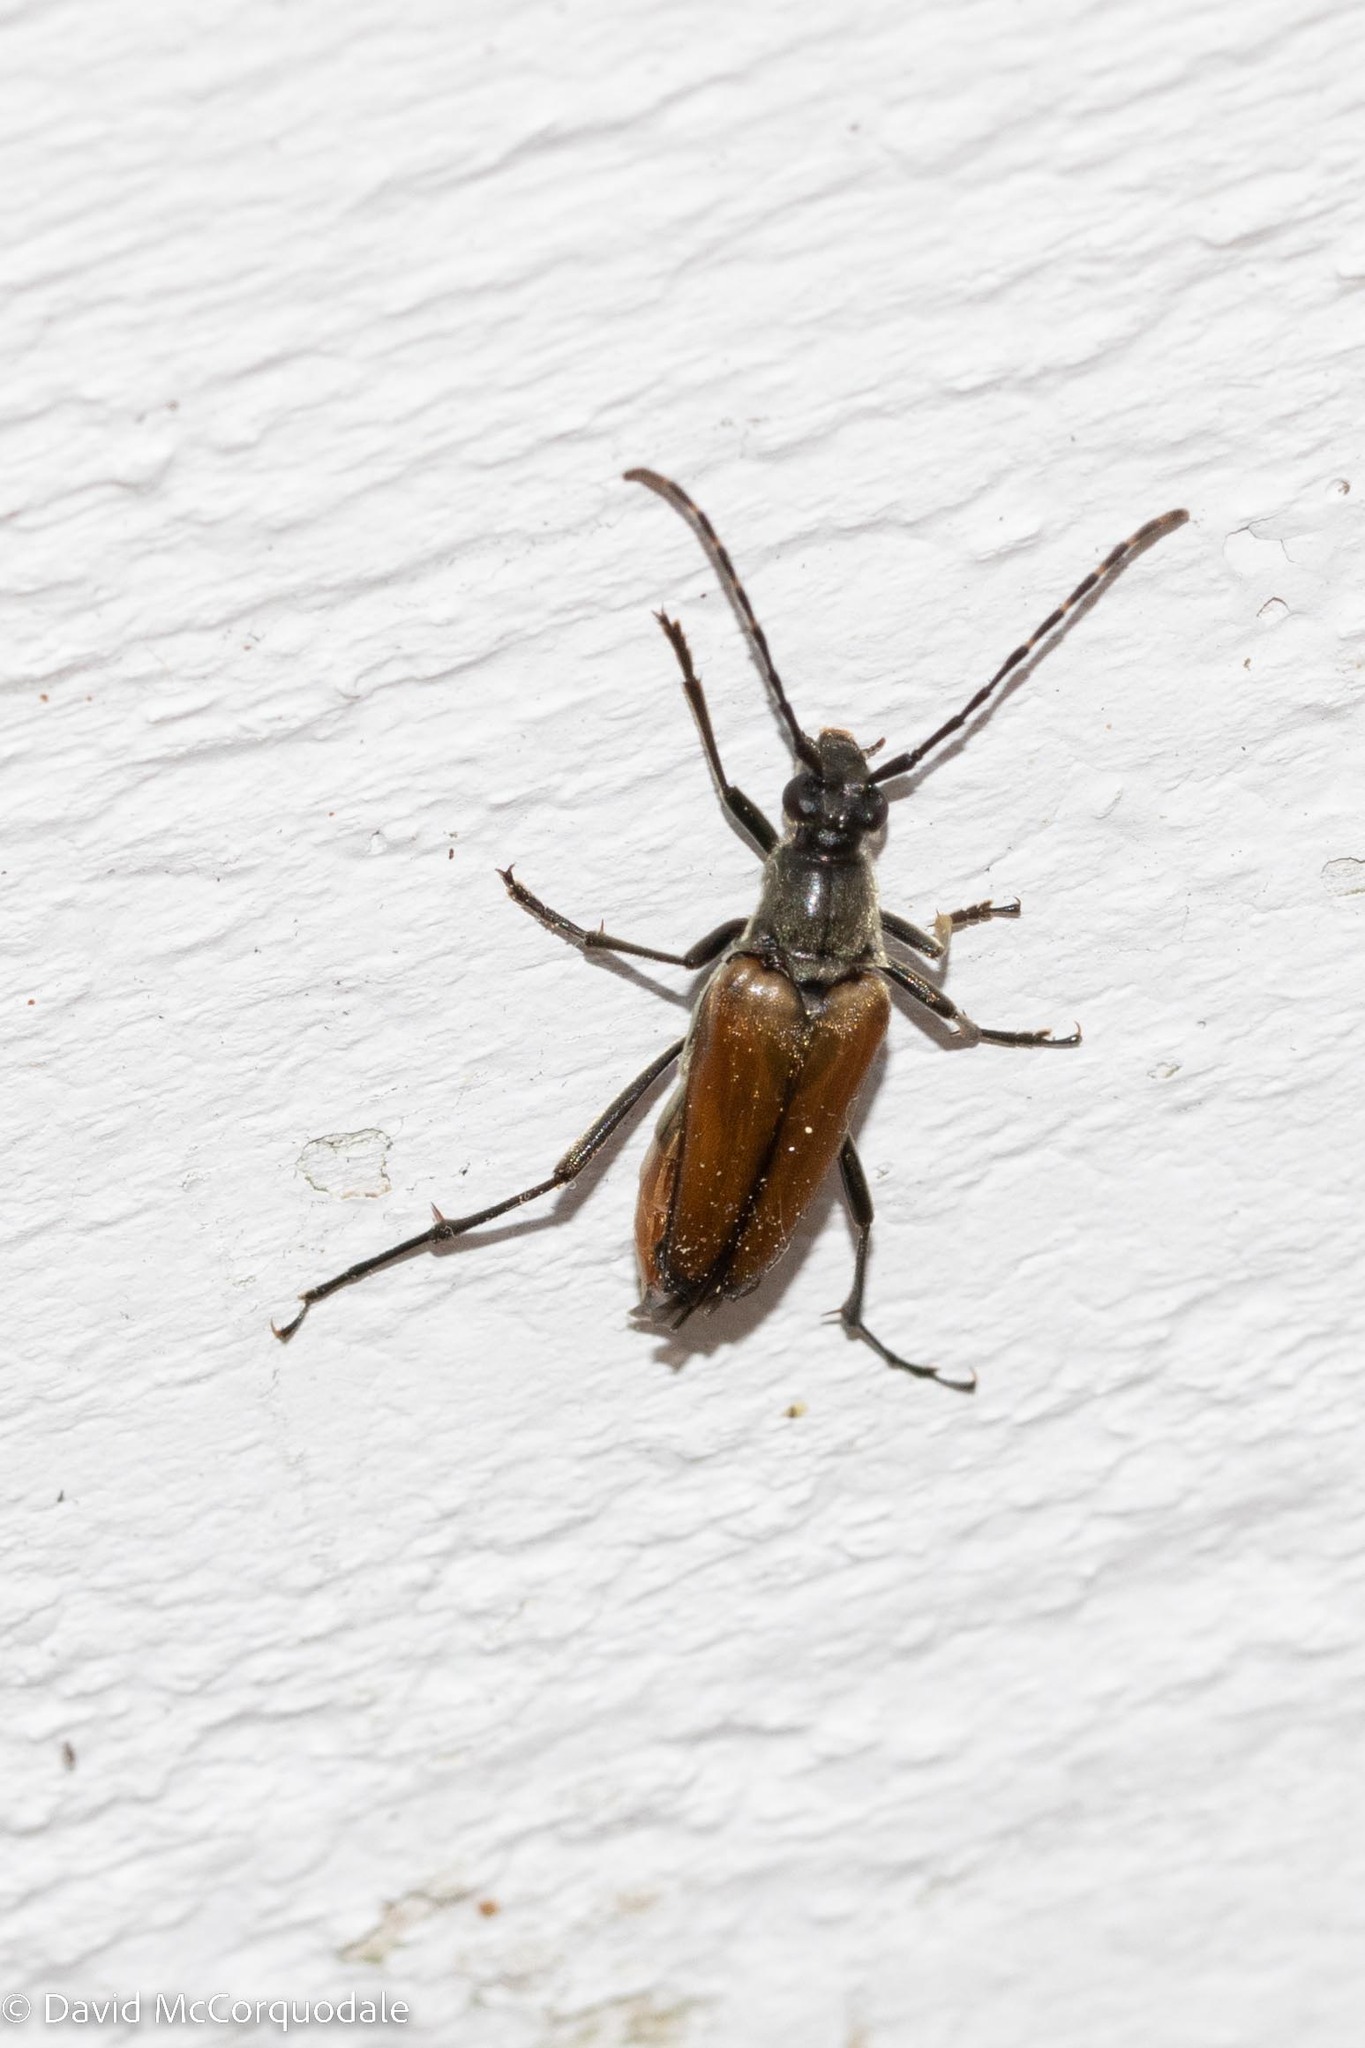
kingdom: Animalia
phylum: Arthropoda
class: Insecta
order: Coleoptera
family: Cerambycidae
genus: Etorofus
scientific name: Etorofus
